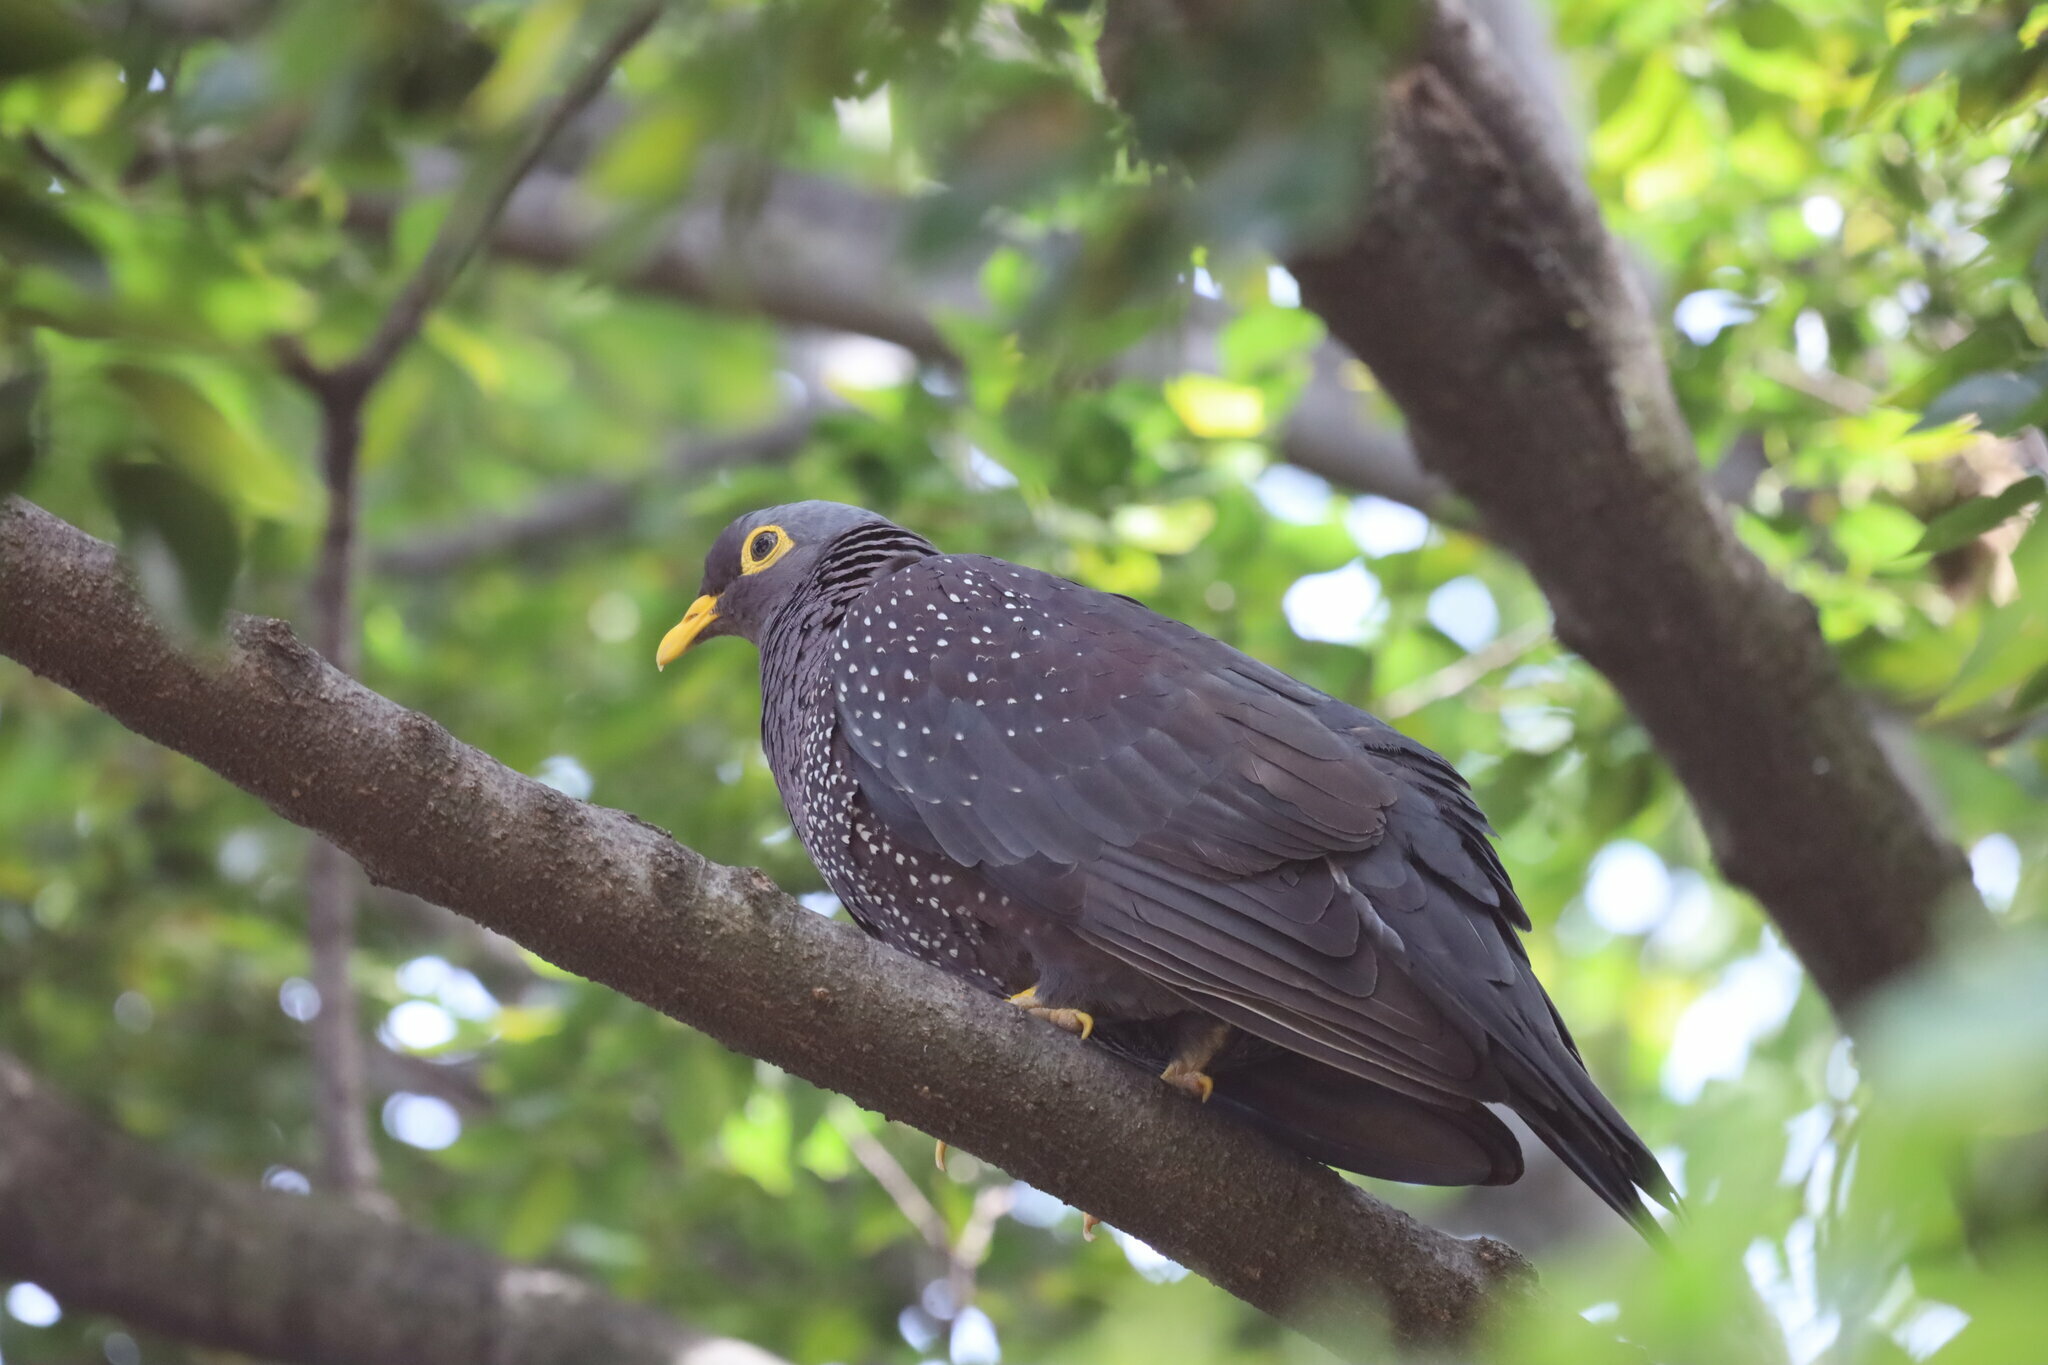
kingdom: Animalia
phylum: Chordata
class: Aves
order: Columbiformes
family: Columbidae
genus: Columba
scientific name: Columba arquatrix
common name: African olive pigeon
